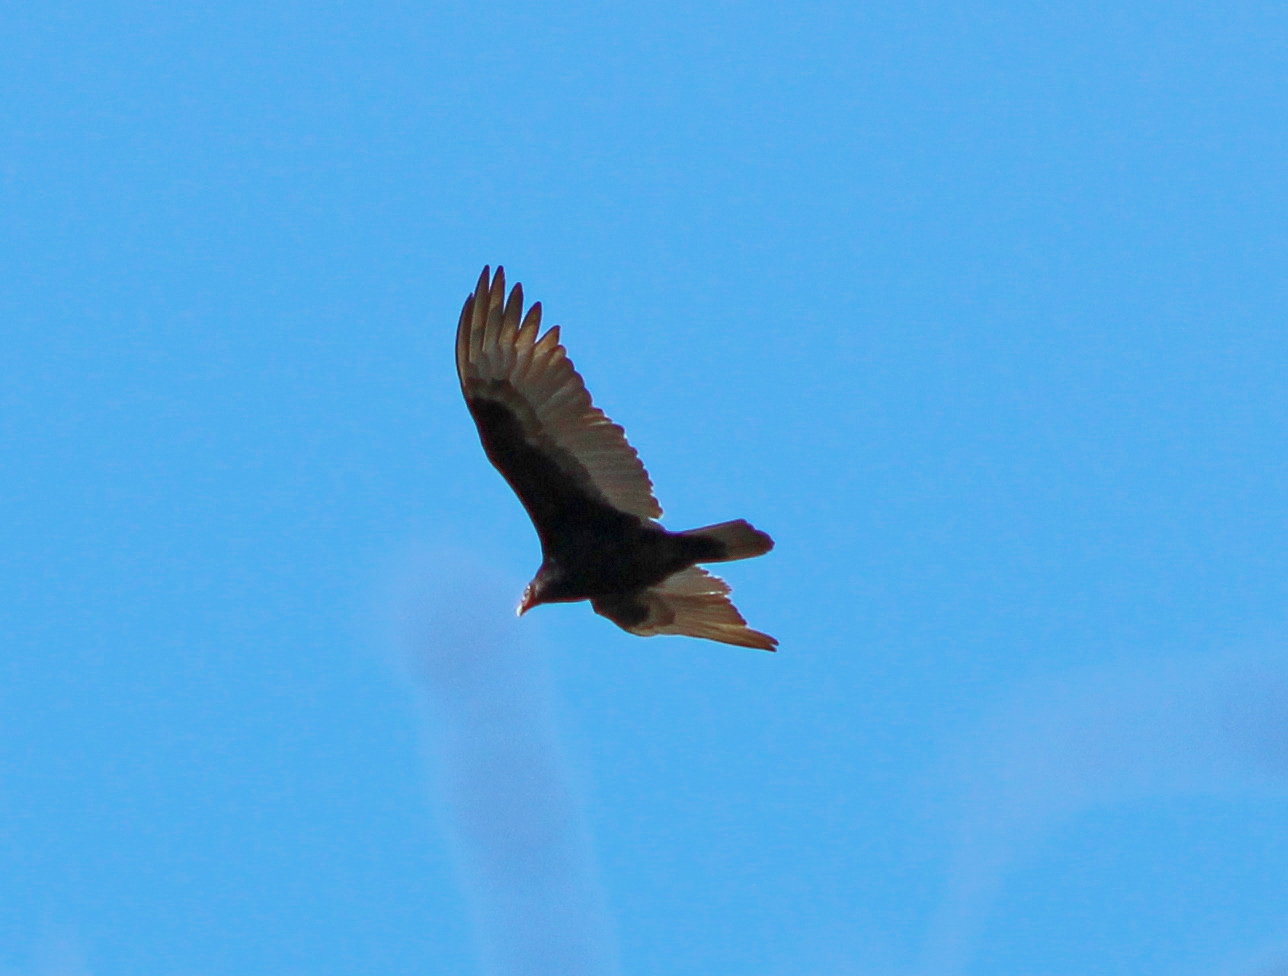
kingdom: Animalia
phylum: Chordata
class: Aves
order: Accipitriformes
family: Cathartidae
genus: Cathartes
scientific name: Cathartes aura
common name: Turkey vulture
